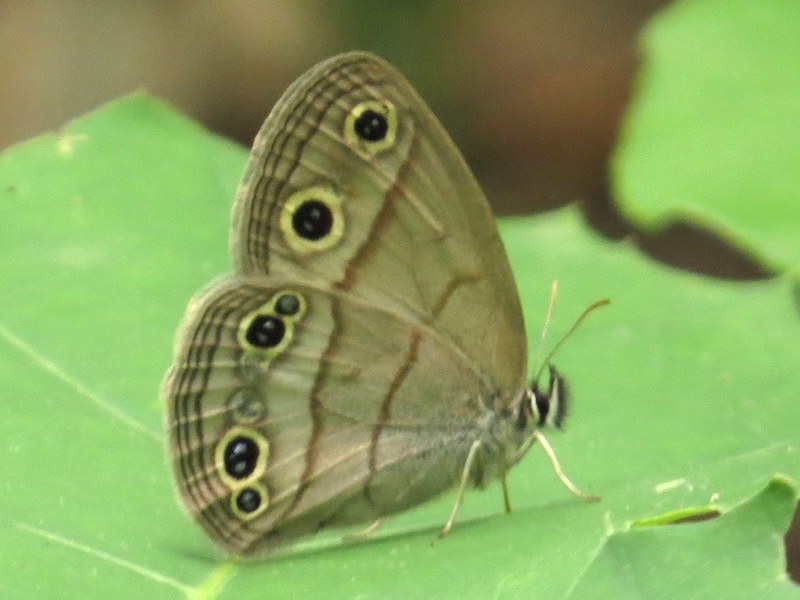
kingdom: Animalia
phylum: Arthropoda
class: Insecta
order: Lepidoptera
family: Nymphalidae
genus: Euptychia
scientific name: Euptychia cymela
